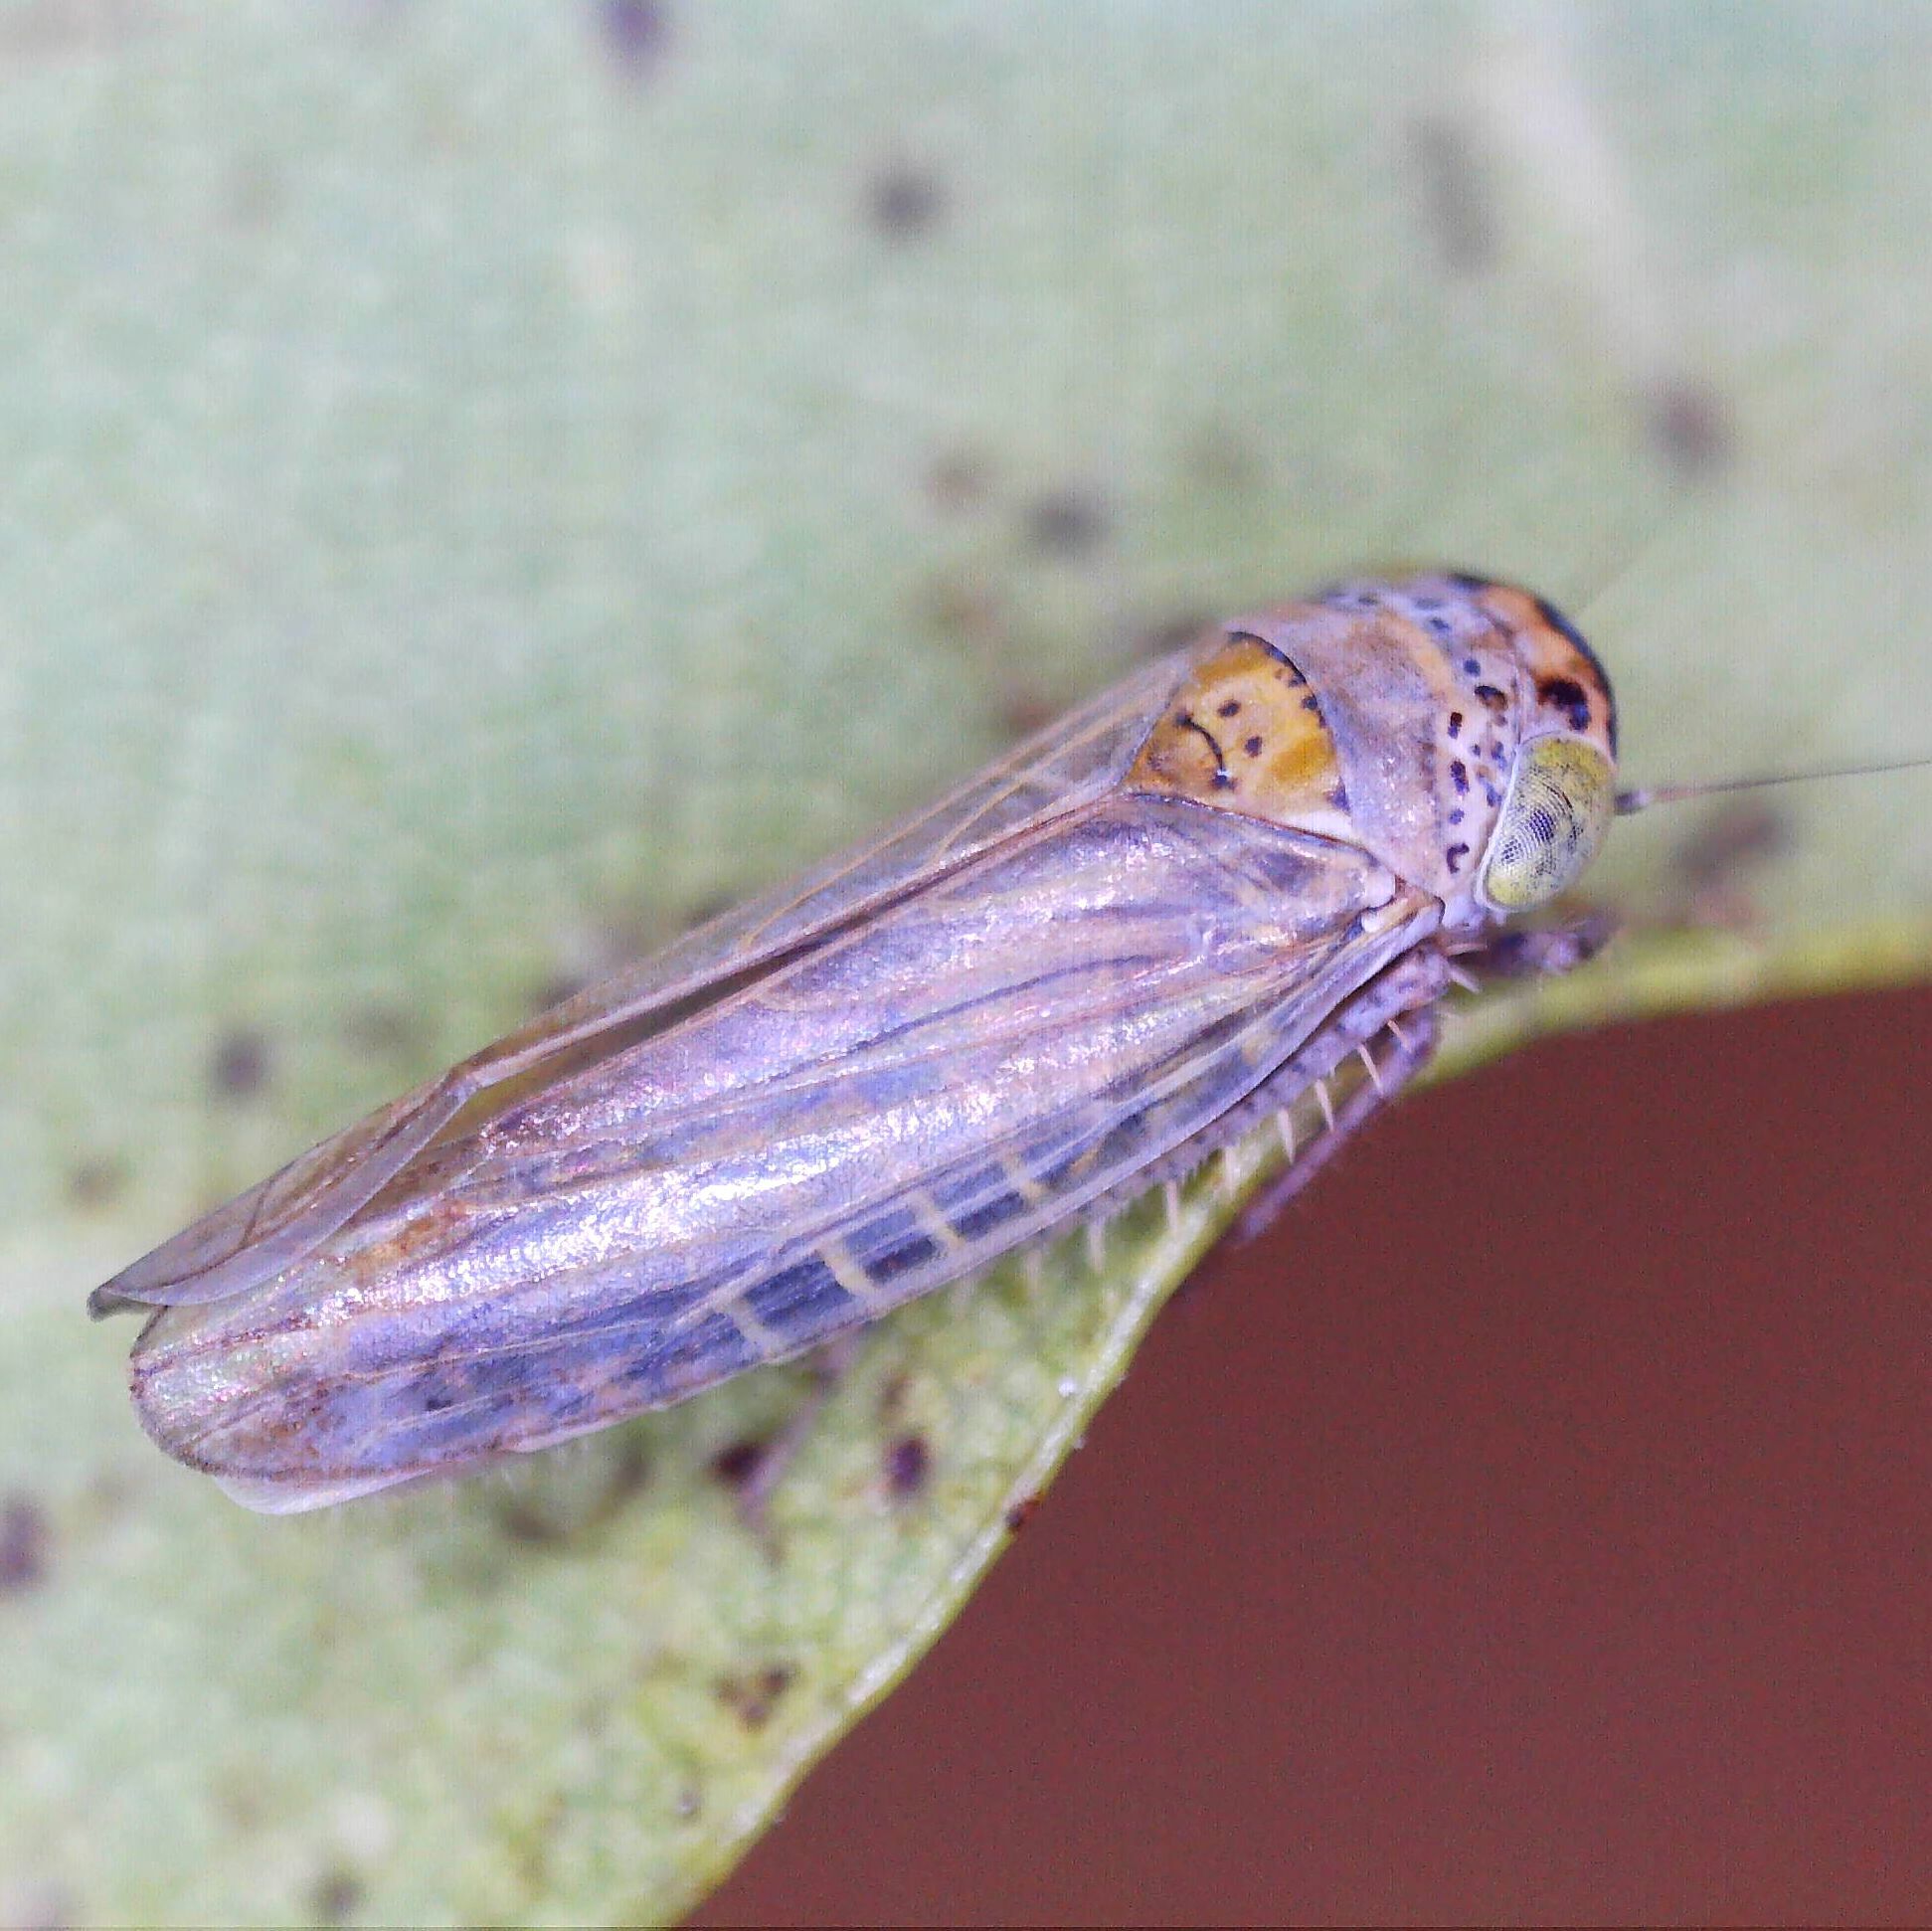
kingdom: Animalia
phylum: Arthropoda
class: Insecta
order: Hemiptera
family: Cicadellidae
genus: Grypotes
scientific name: Grypotes puncticollis
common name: Leafhopper
